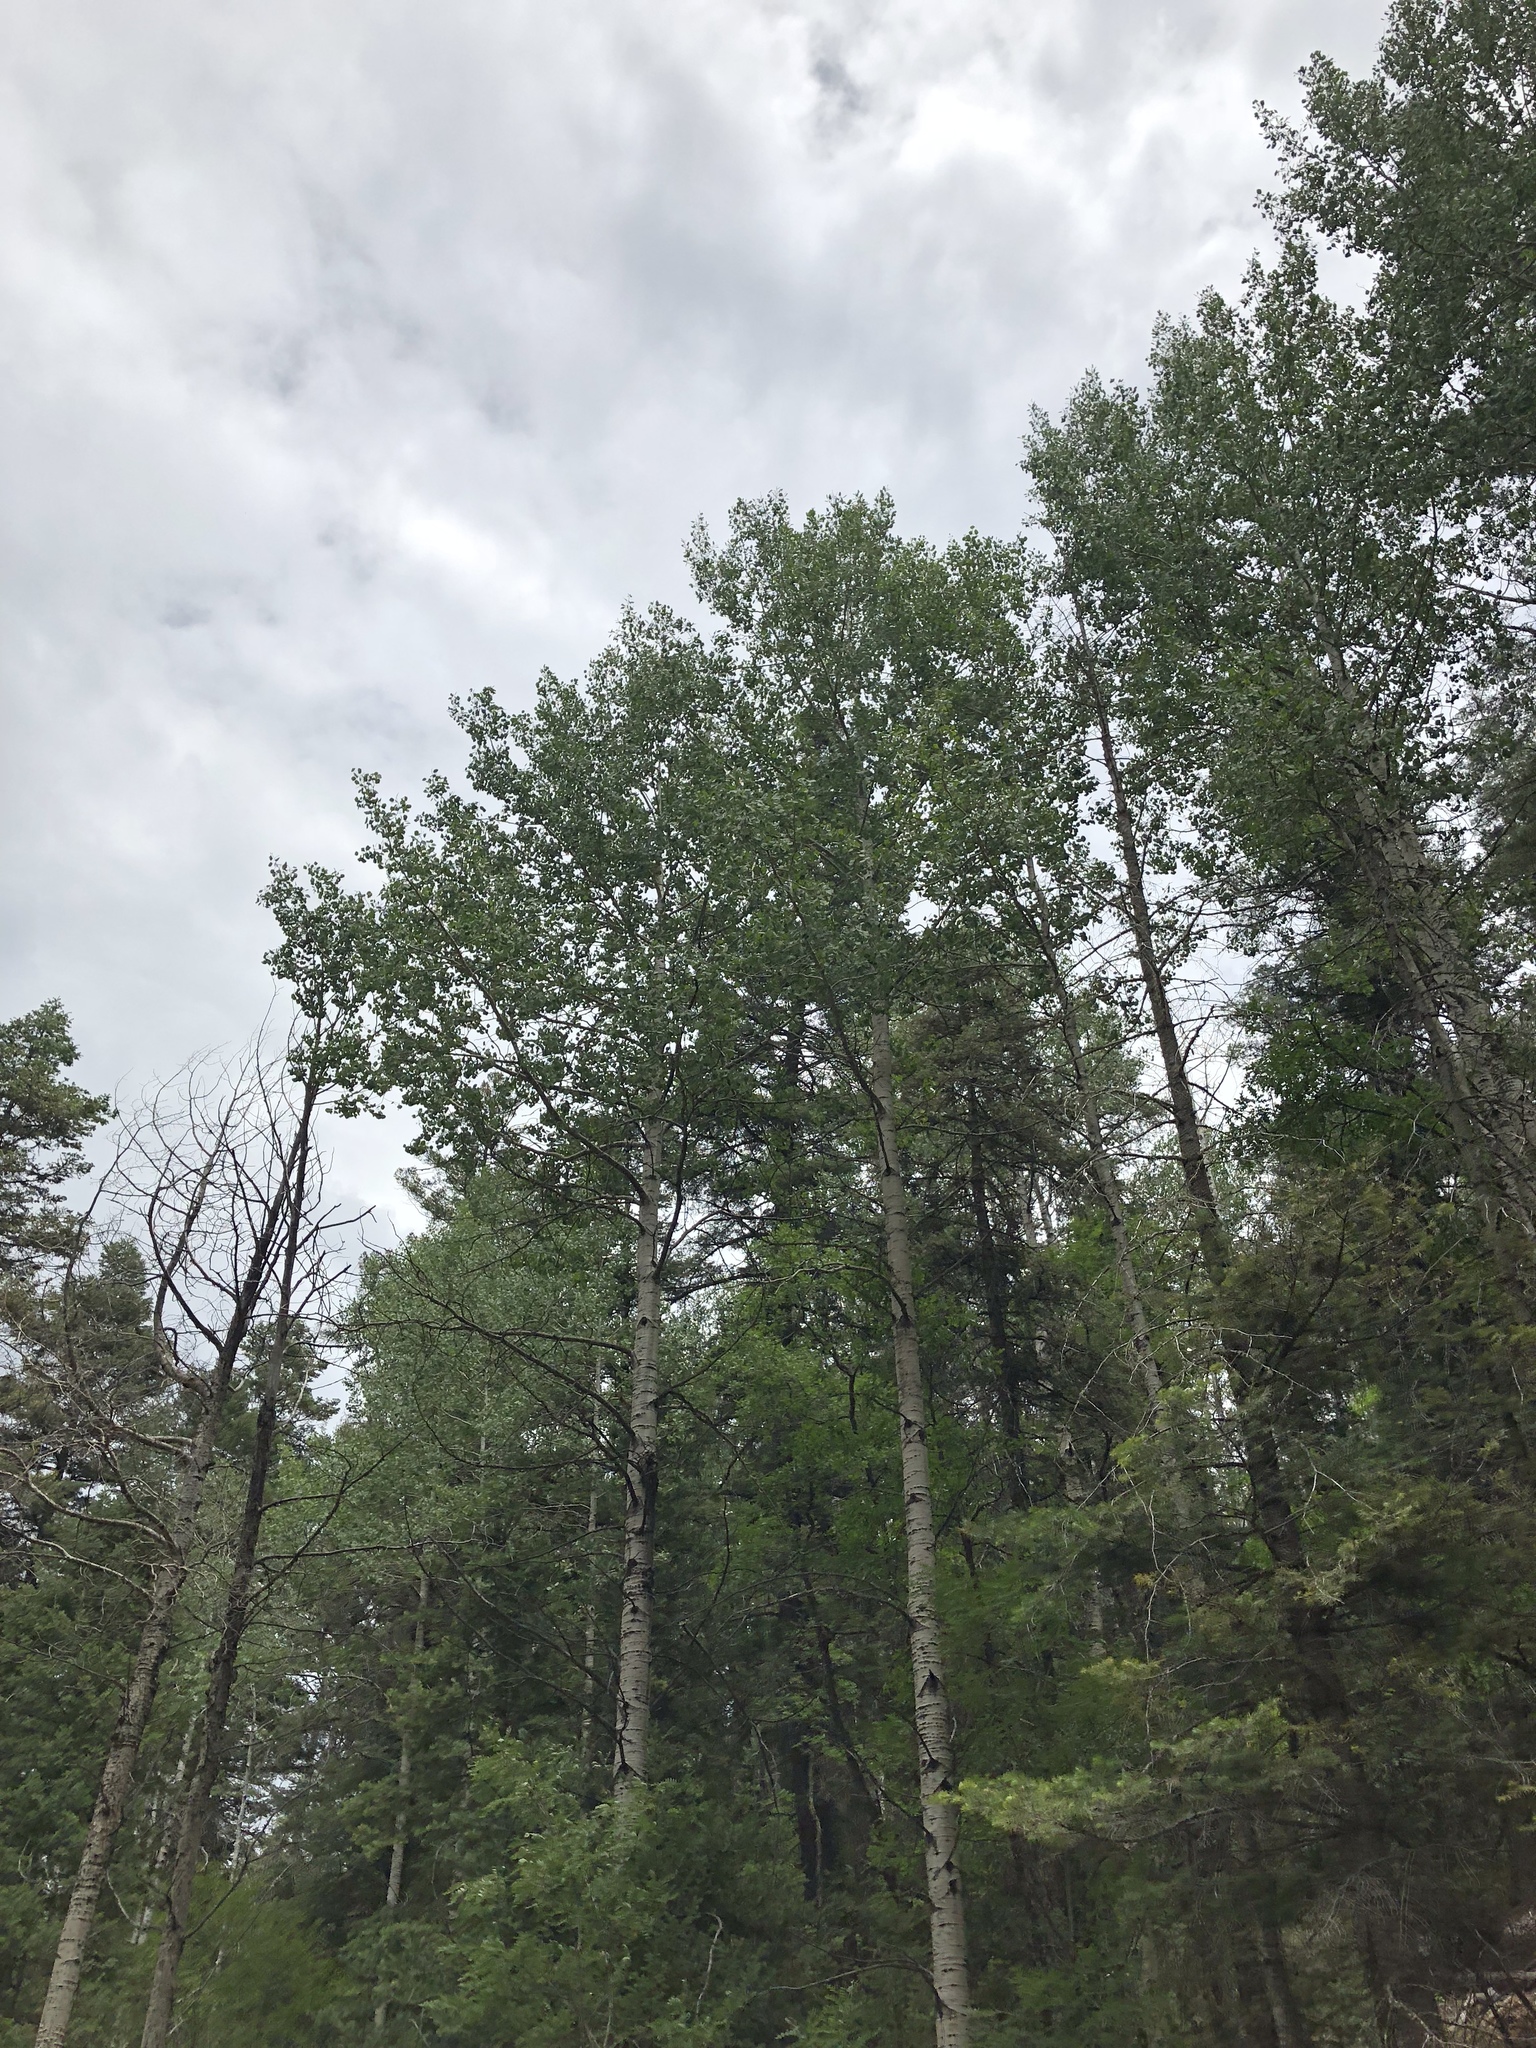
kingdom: Plantae
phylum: Tracheophyta
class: Magnoliopsida
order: Malpighiales
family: Salicaceae
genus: Populus
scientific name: Populus tremuloides
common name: Quaking aspen
